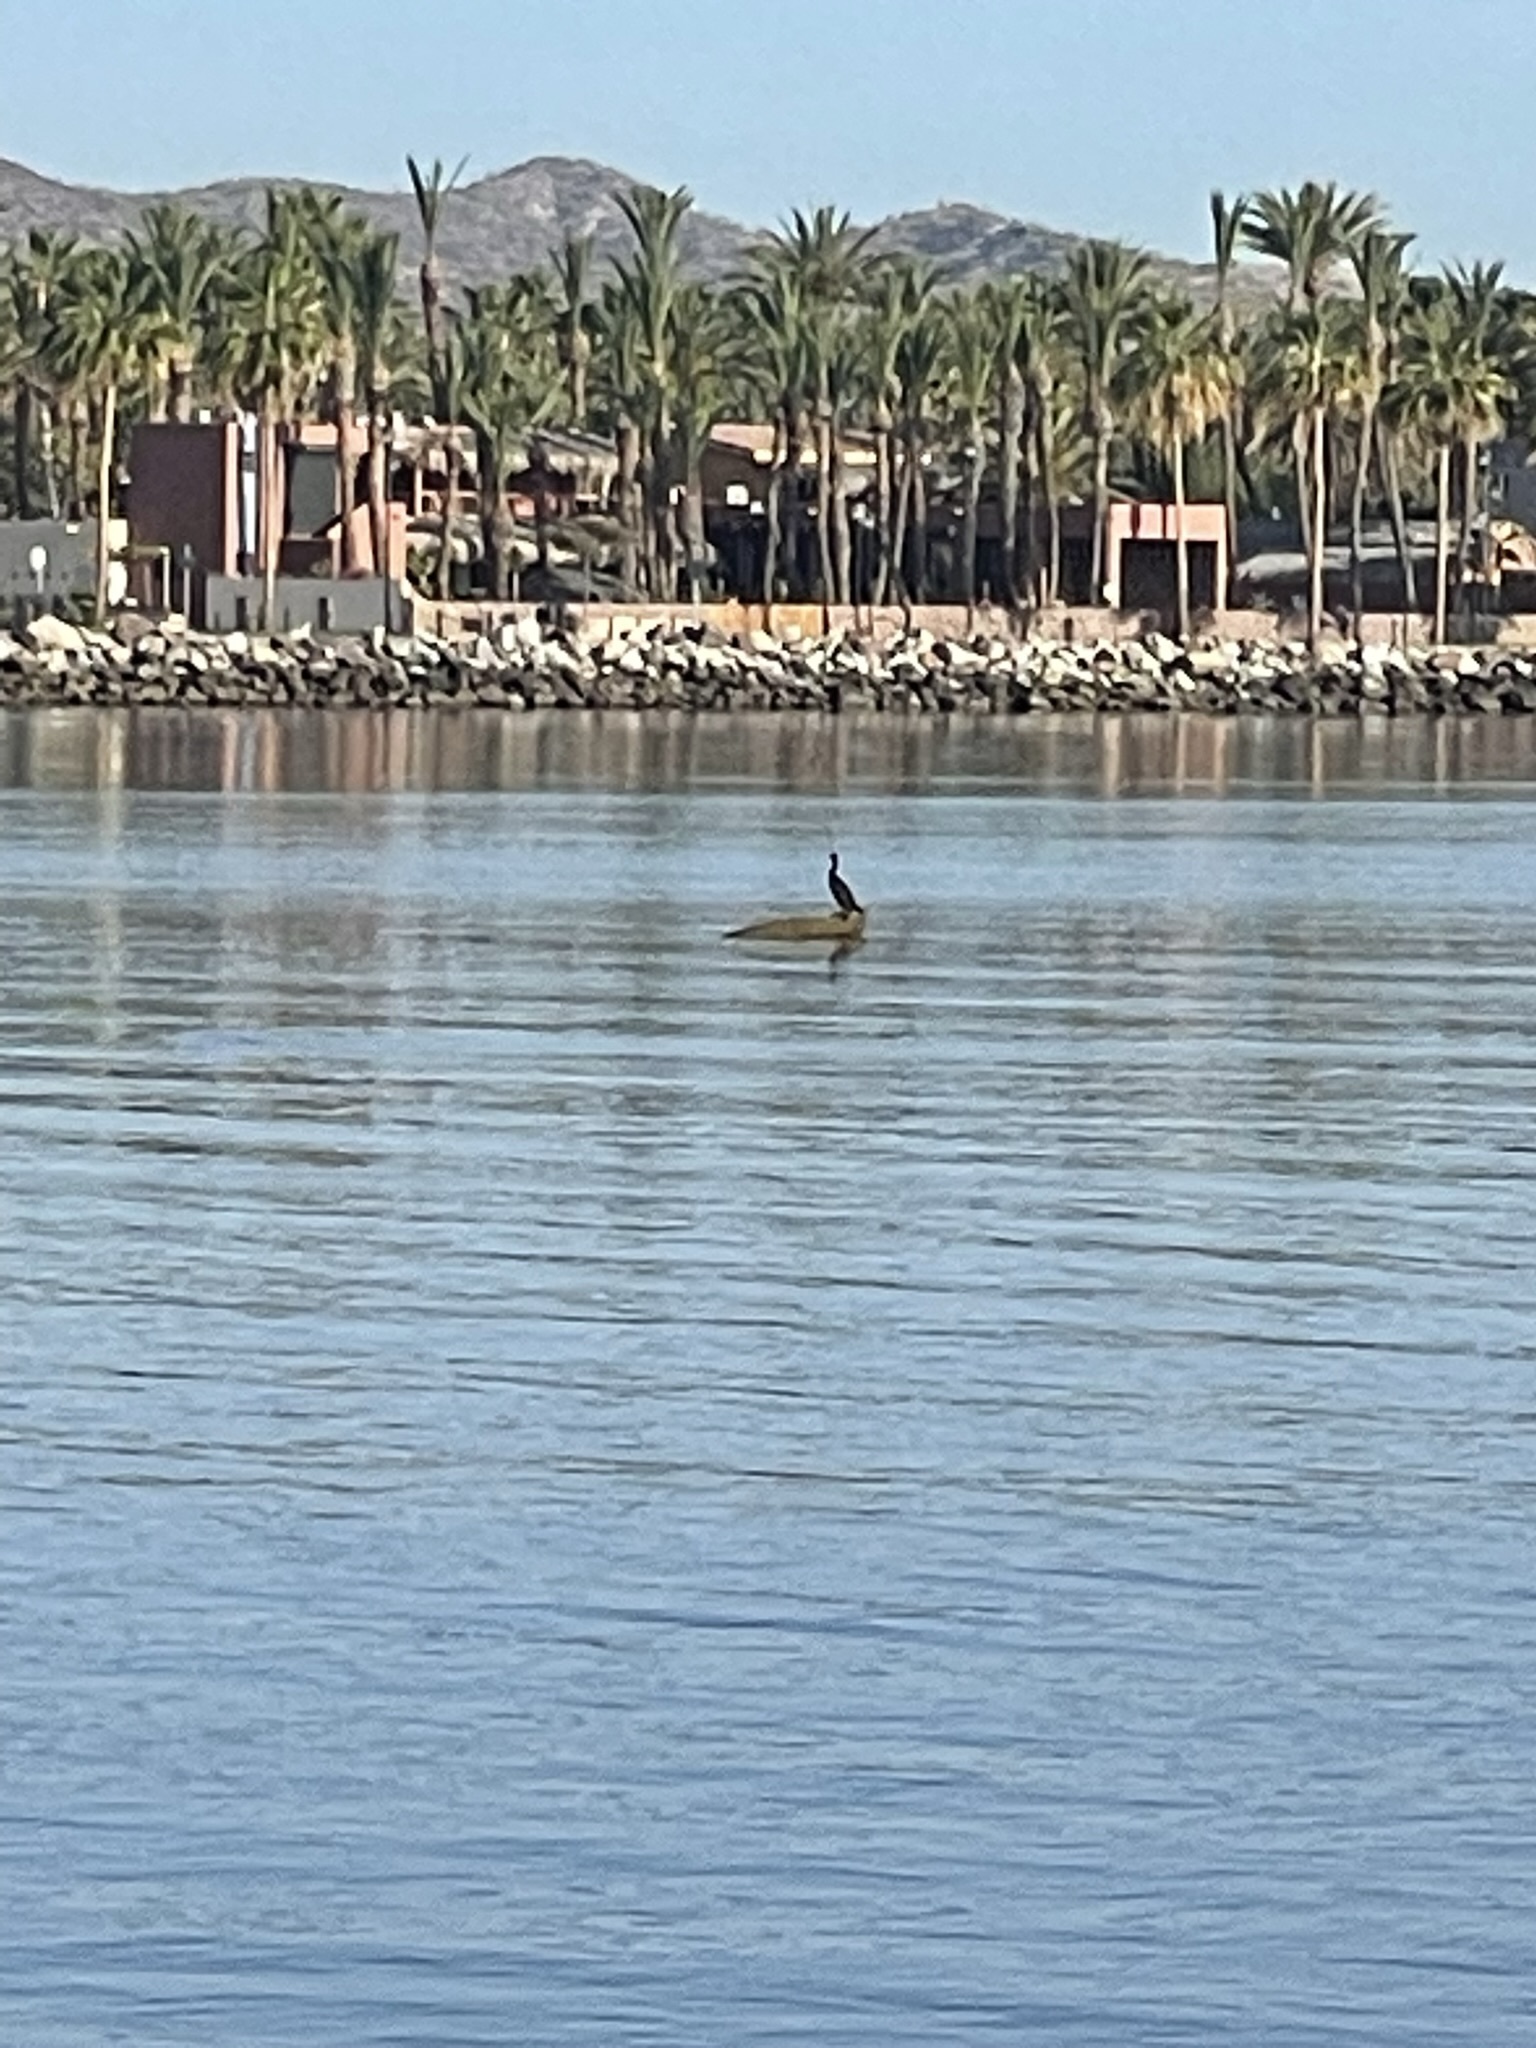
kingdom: Animalia
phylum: Chordata
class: Aves
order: Suliformes
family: Phalacrocoracidae
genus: Phalacrocorax
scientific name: Phalacrocorax auritus
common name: Double-crested cormorant
